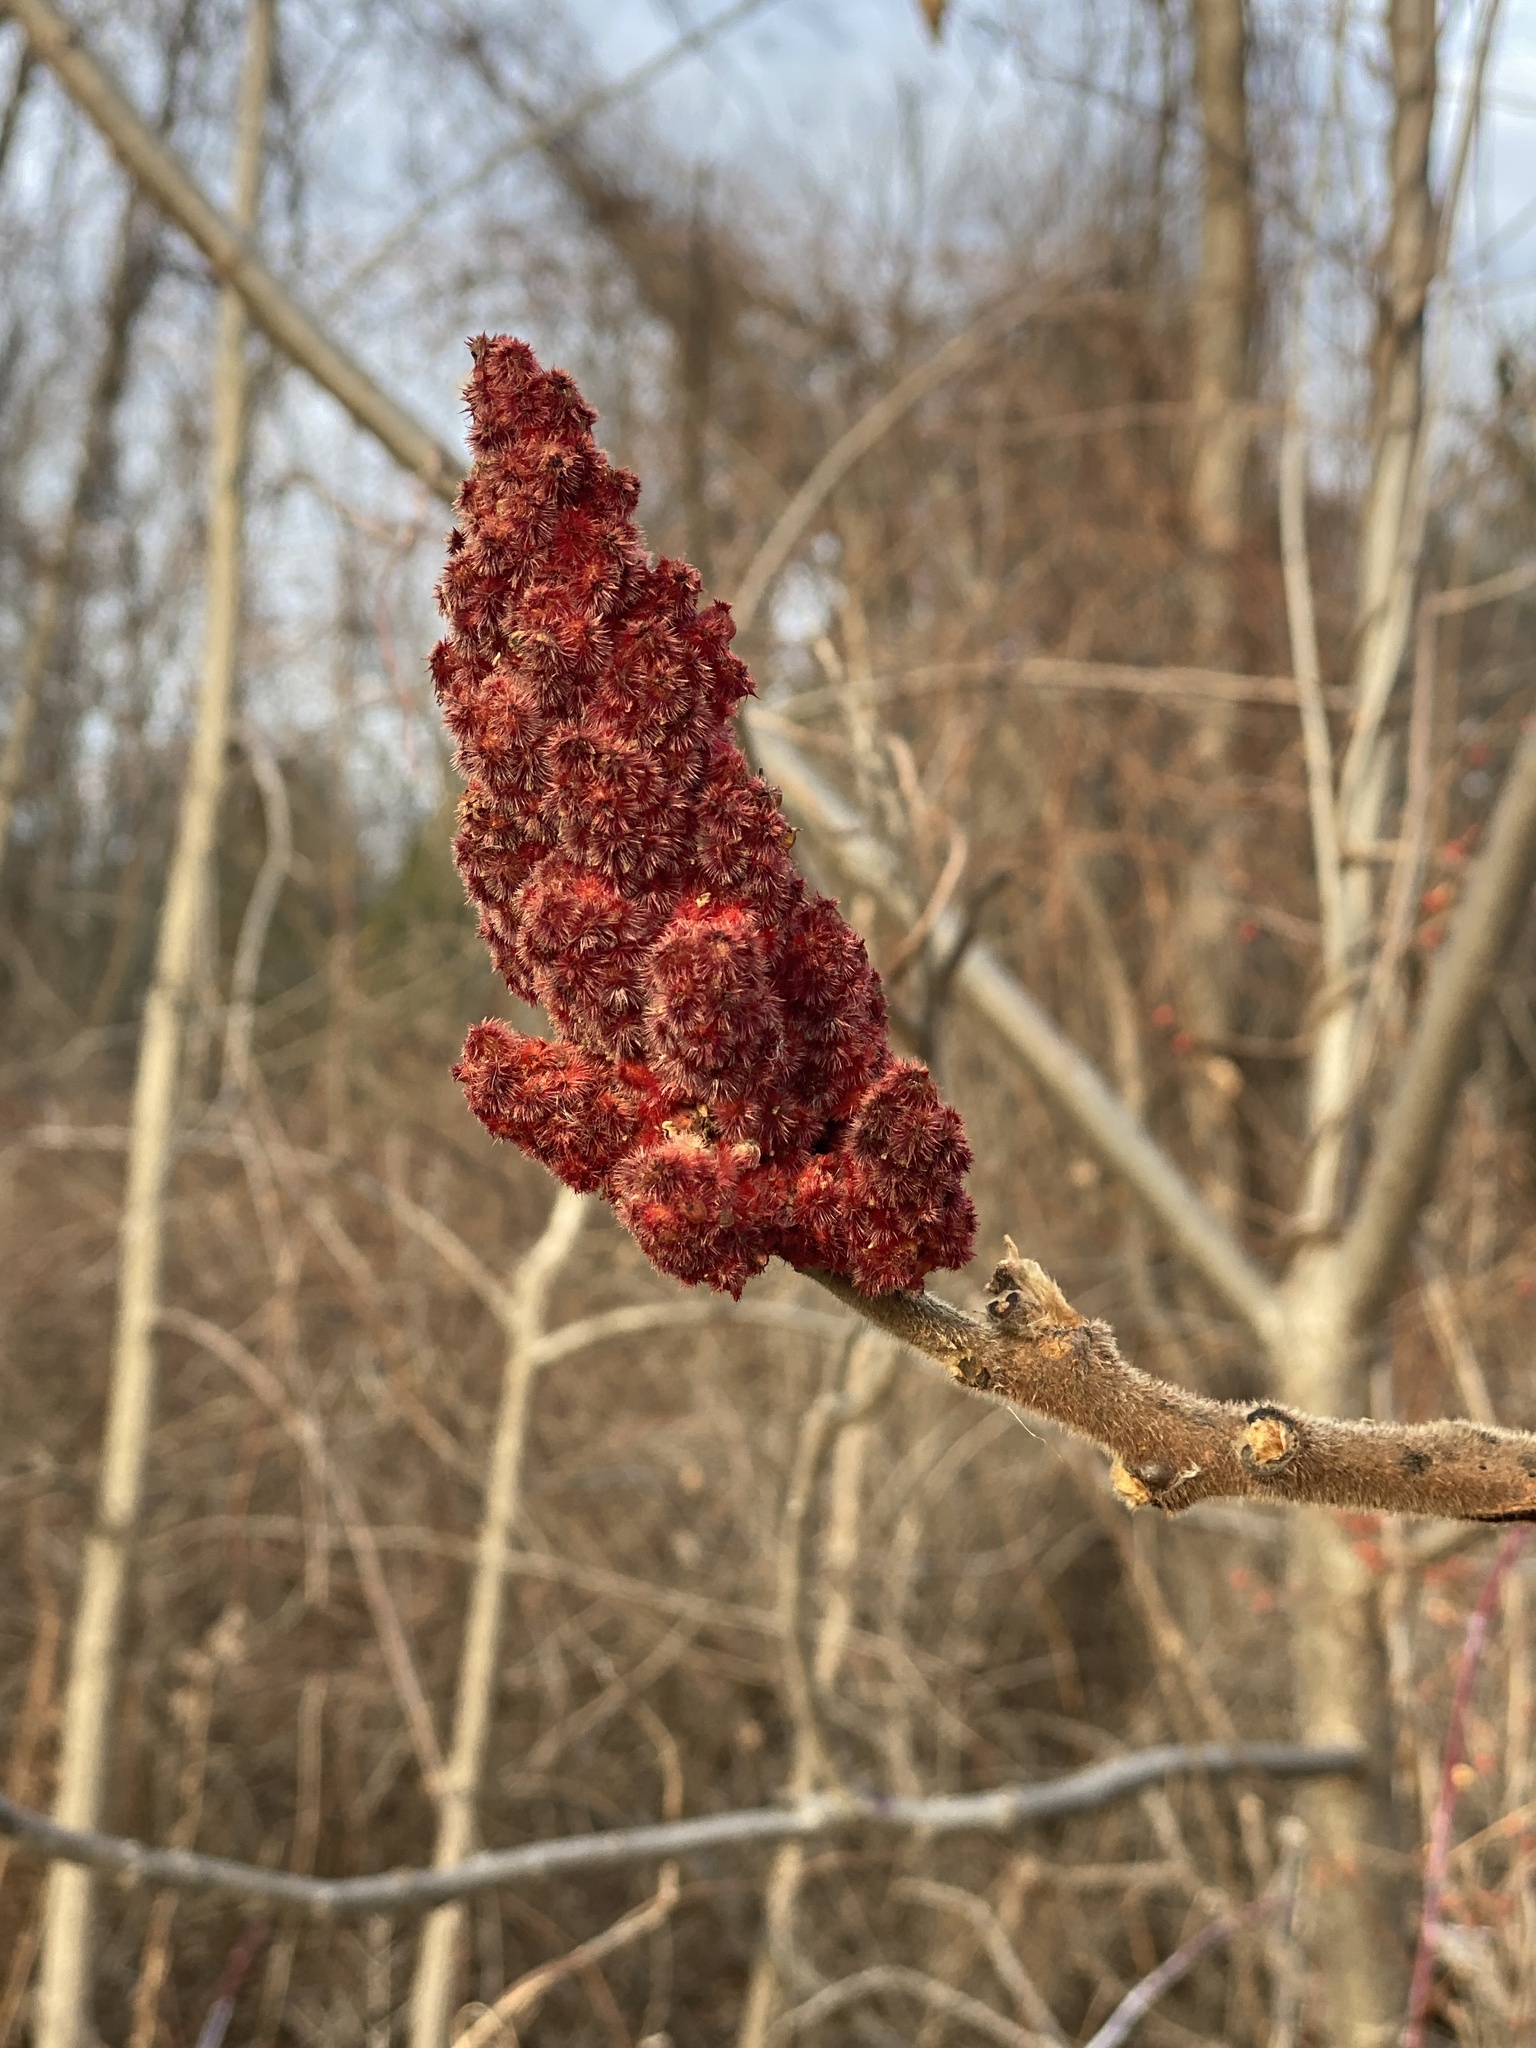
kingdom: Plantae
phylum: Tracheophyta
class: Magnoliopsida
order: Sapindales
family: Anacardiaceae
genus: Rhus
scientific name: Rhus typhina
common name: Staghorn sumac
